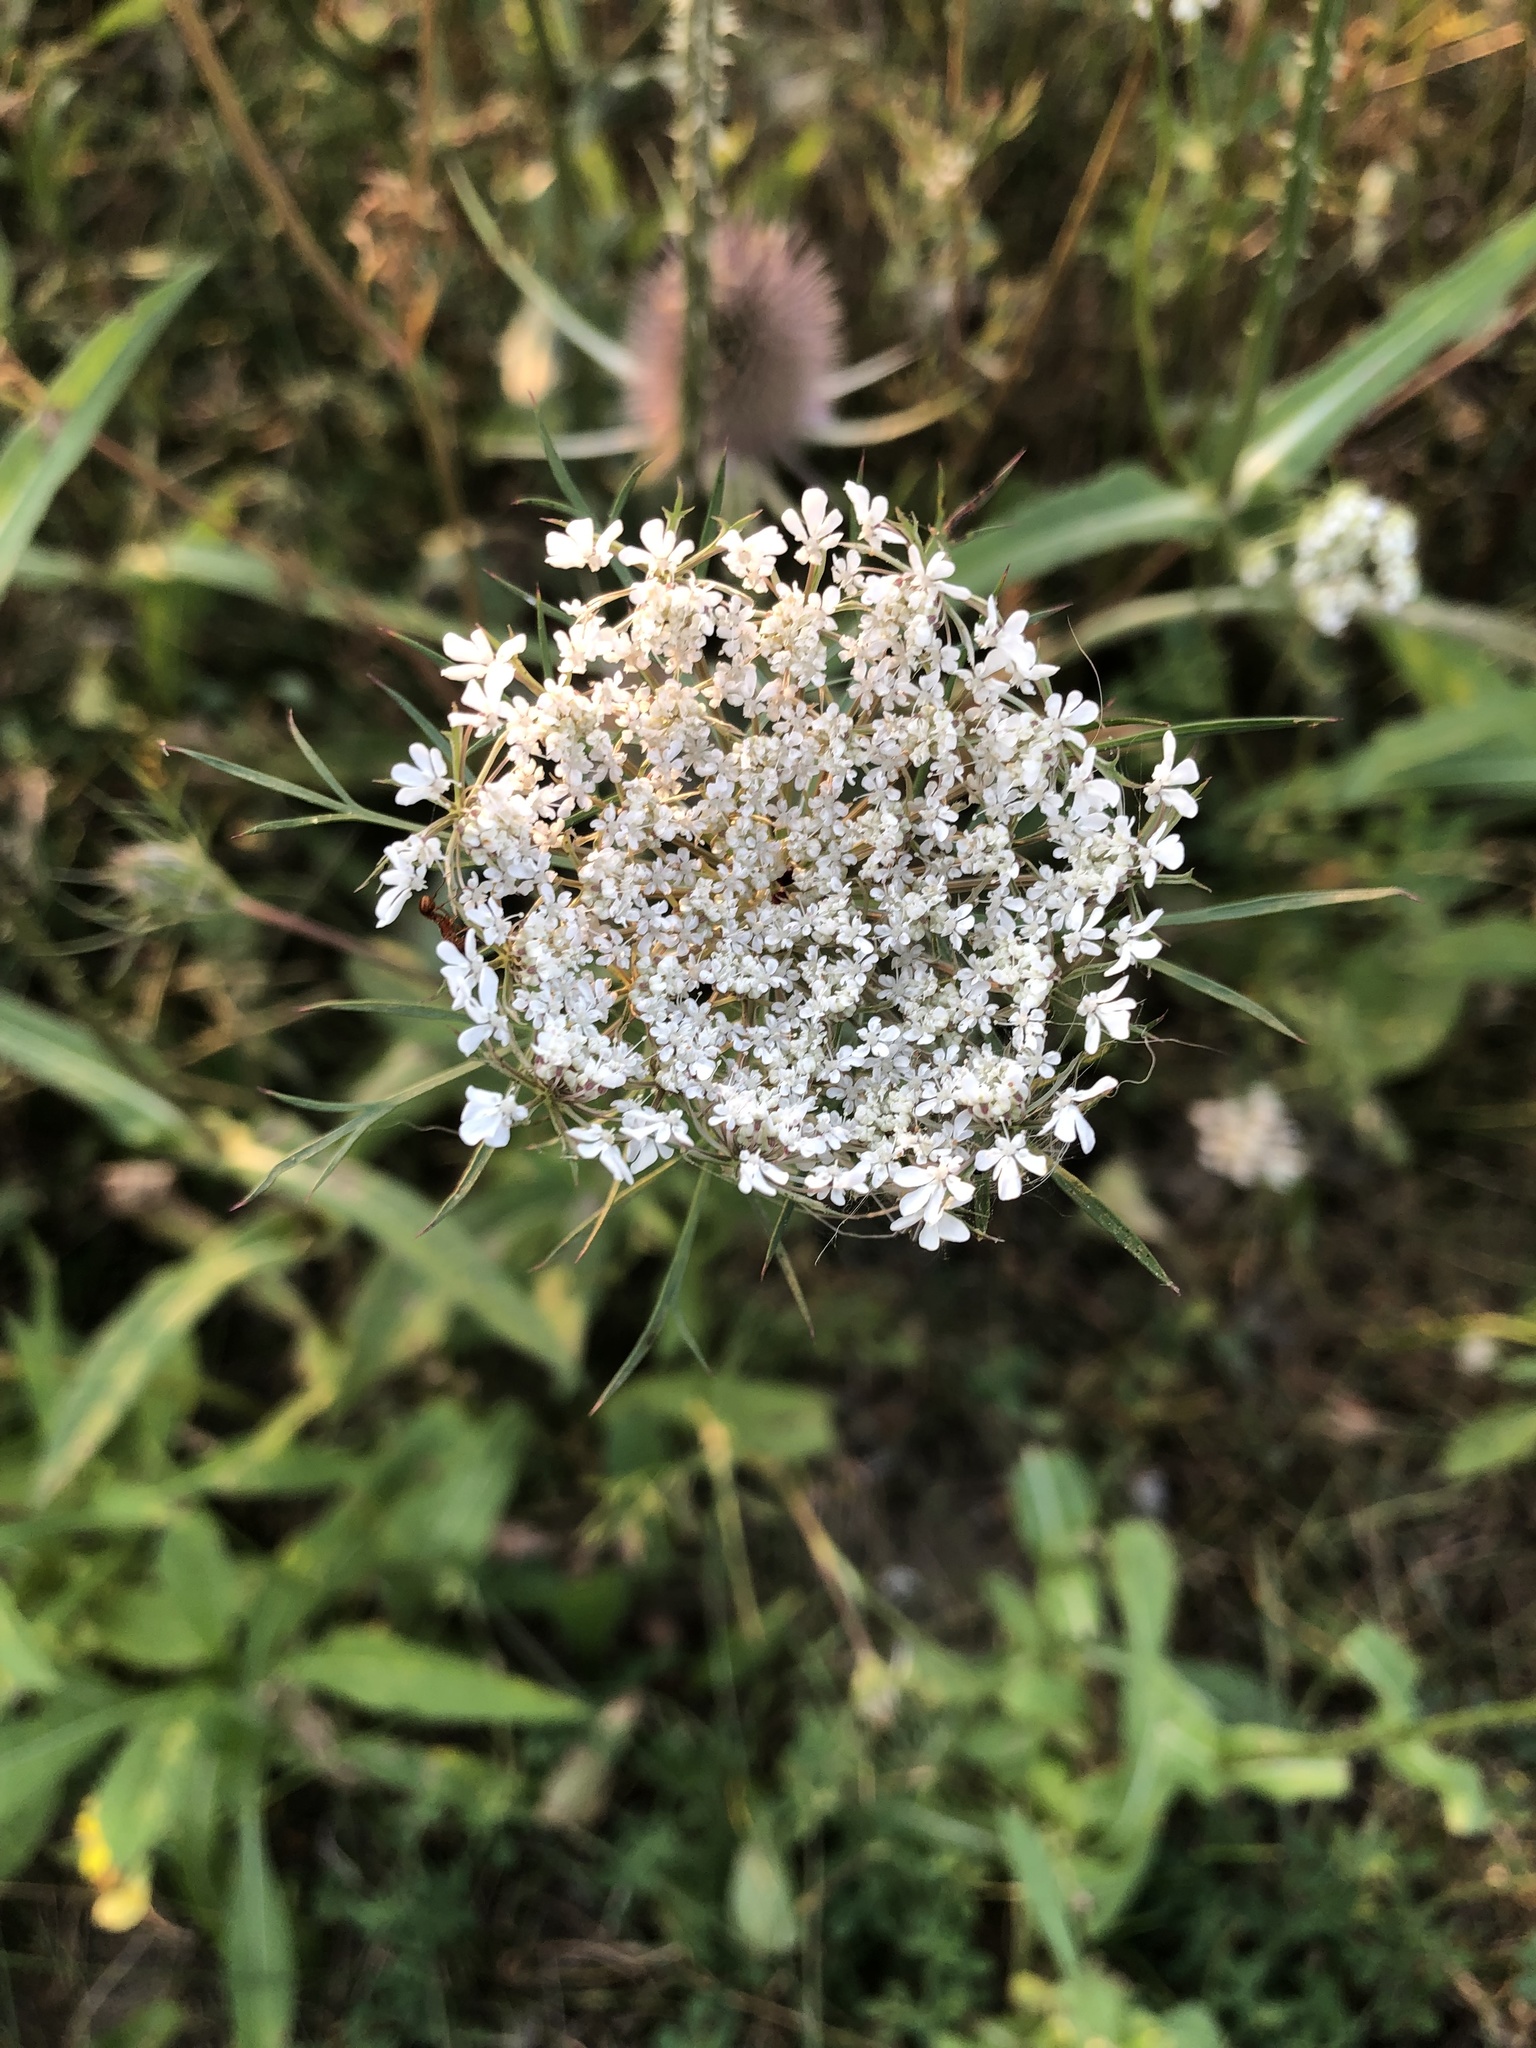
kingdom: Plantae
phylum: Tracheophyta
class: Magnoliopsida
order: Apiales
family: Apiaceae
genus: Daucus
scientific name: Daucus carota
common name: Wild carrot
